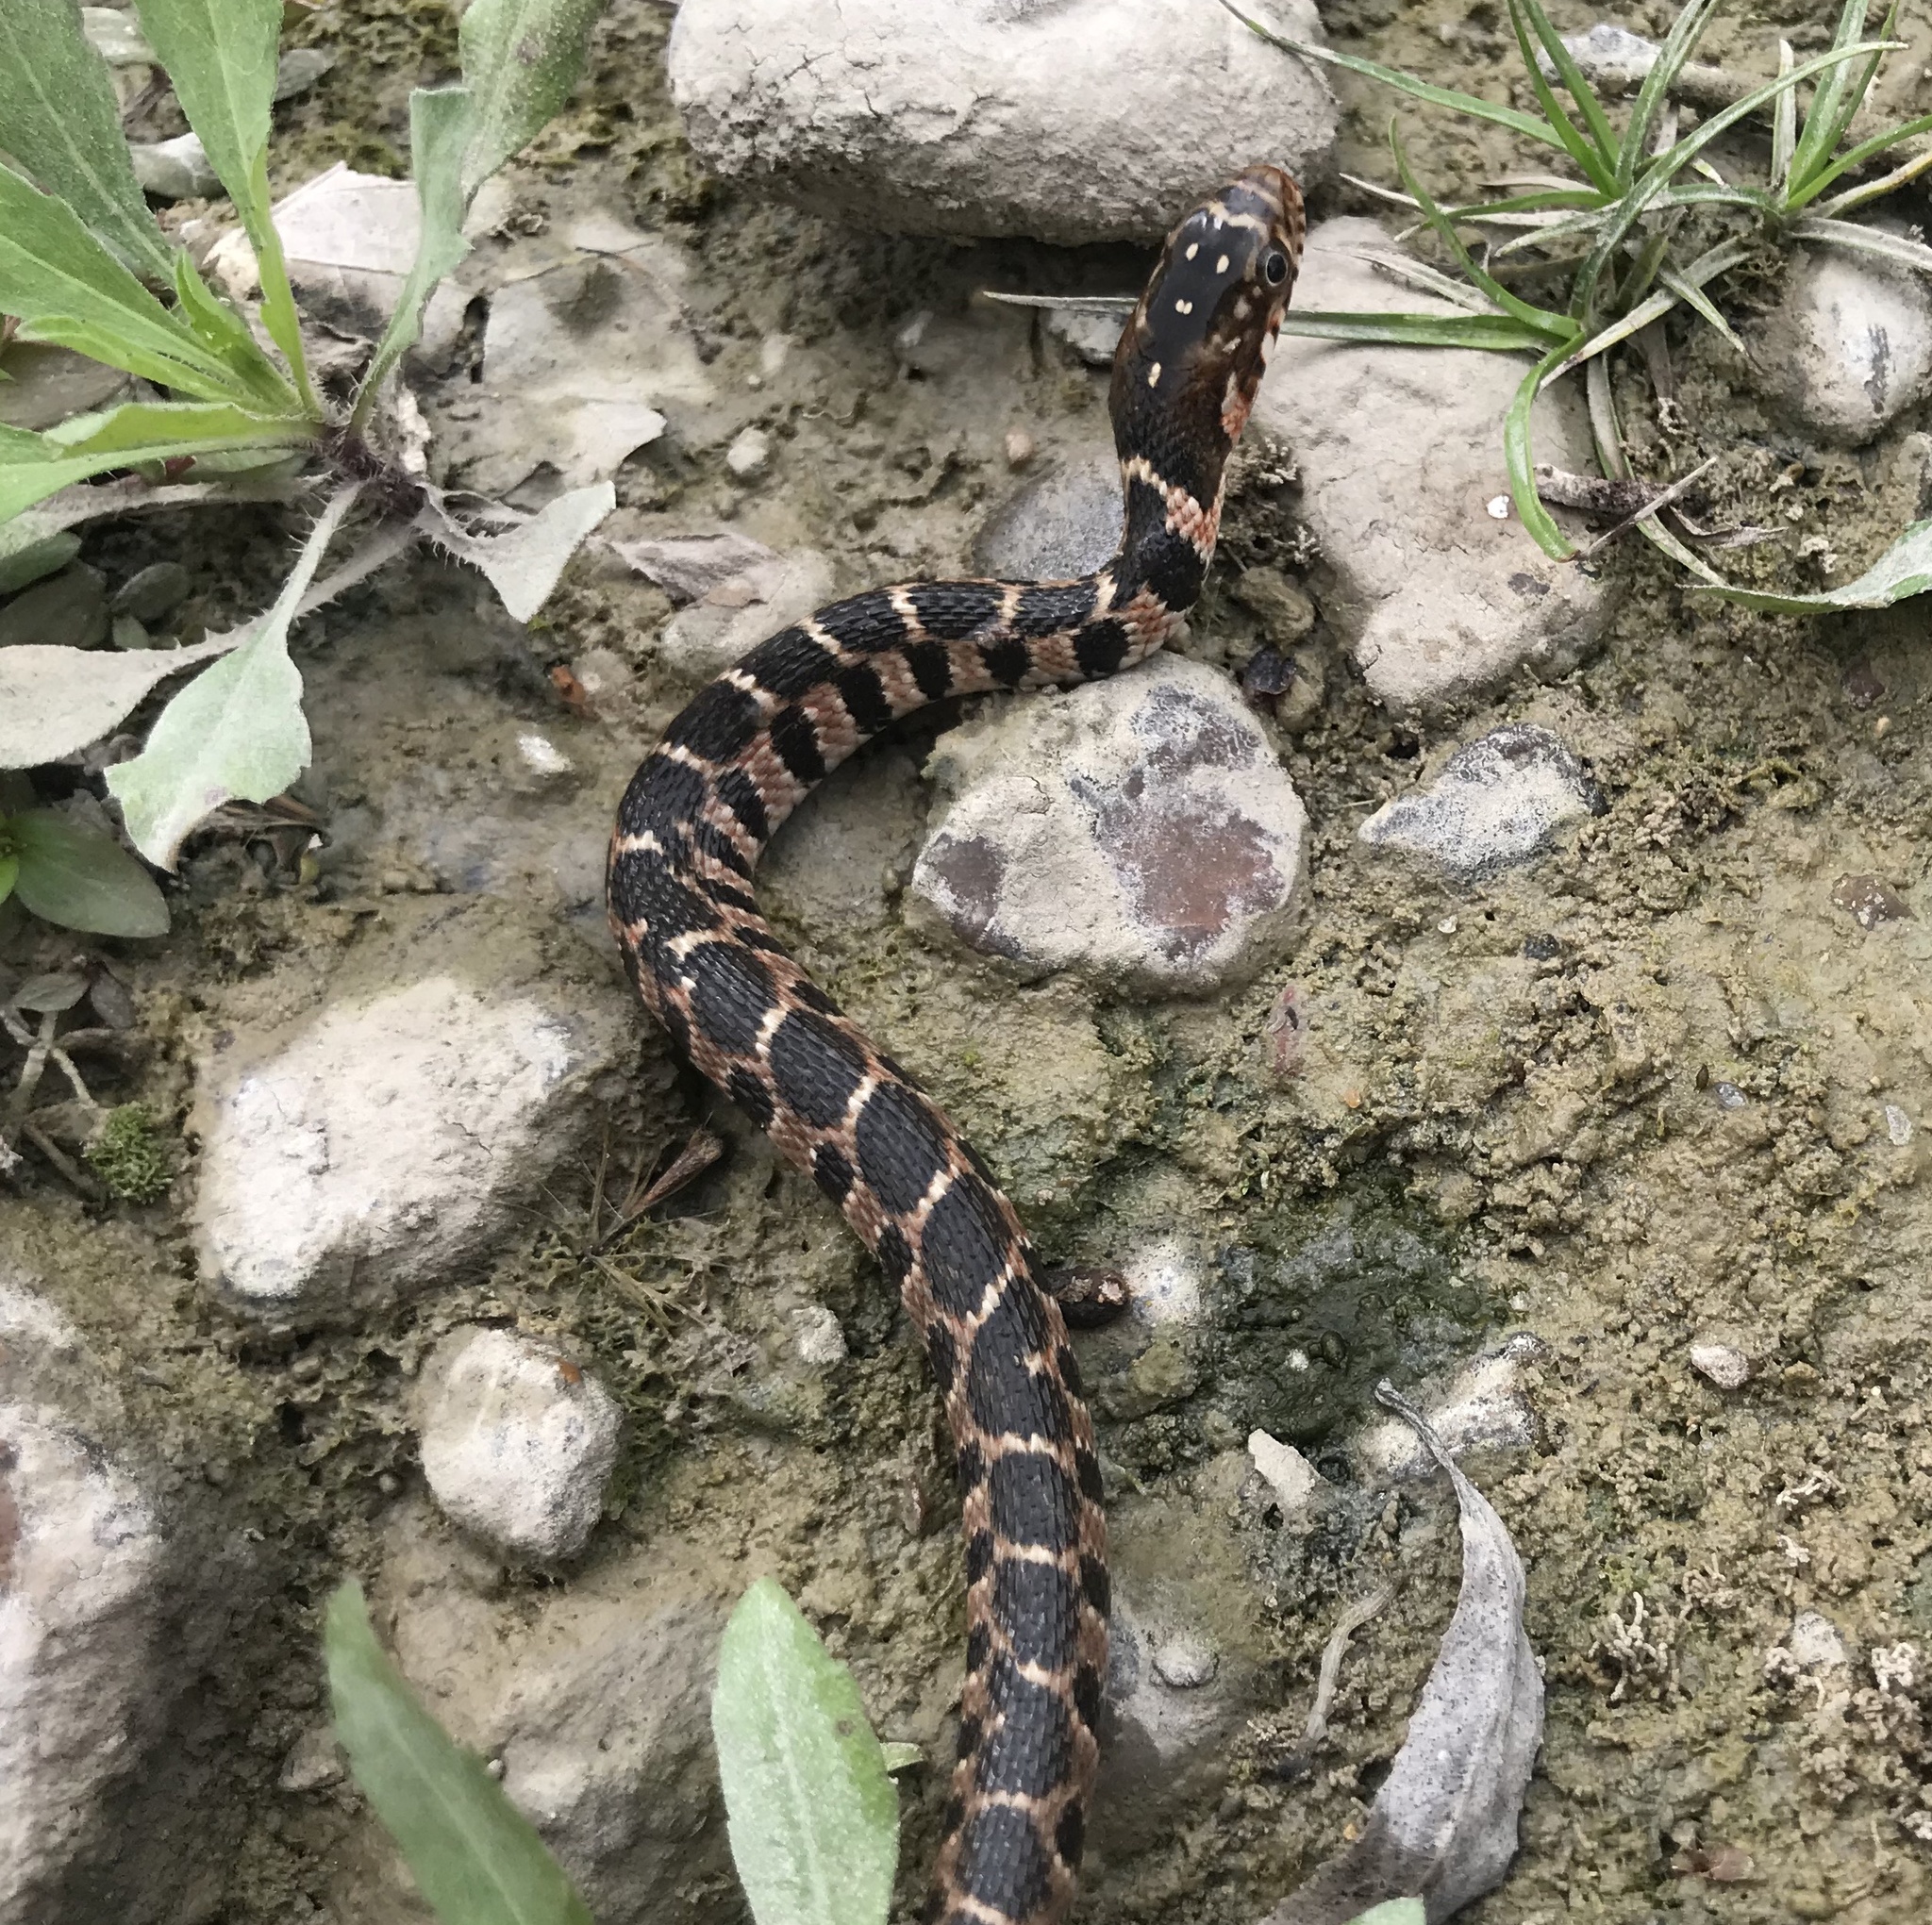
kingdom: Animalia
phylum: Chordata
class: Squamata
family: Colubridae
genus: Nerodia
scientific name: Nerodia erythrogaster
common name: Plainbelly water snake
